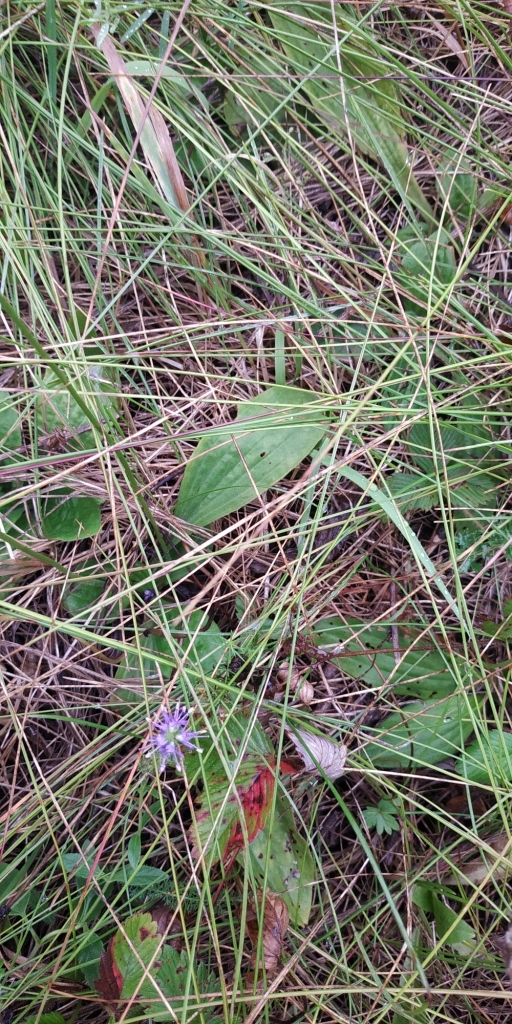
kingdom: Plantae
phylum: Tracheophyta
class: Magnoliopsida
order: Lamiales
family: Plantaginaceae
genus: Plantago
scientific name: Plantago media
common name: Hoary plantain
